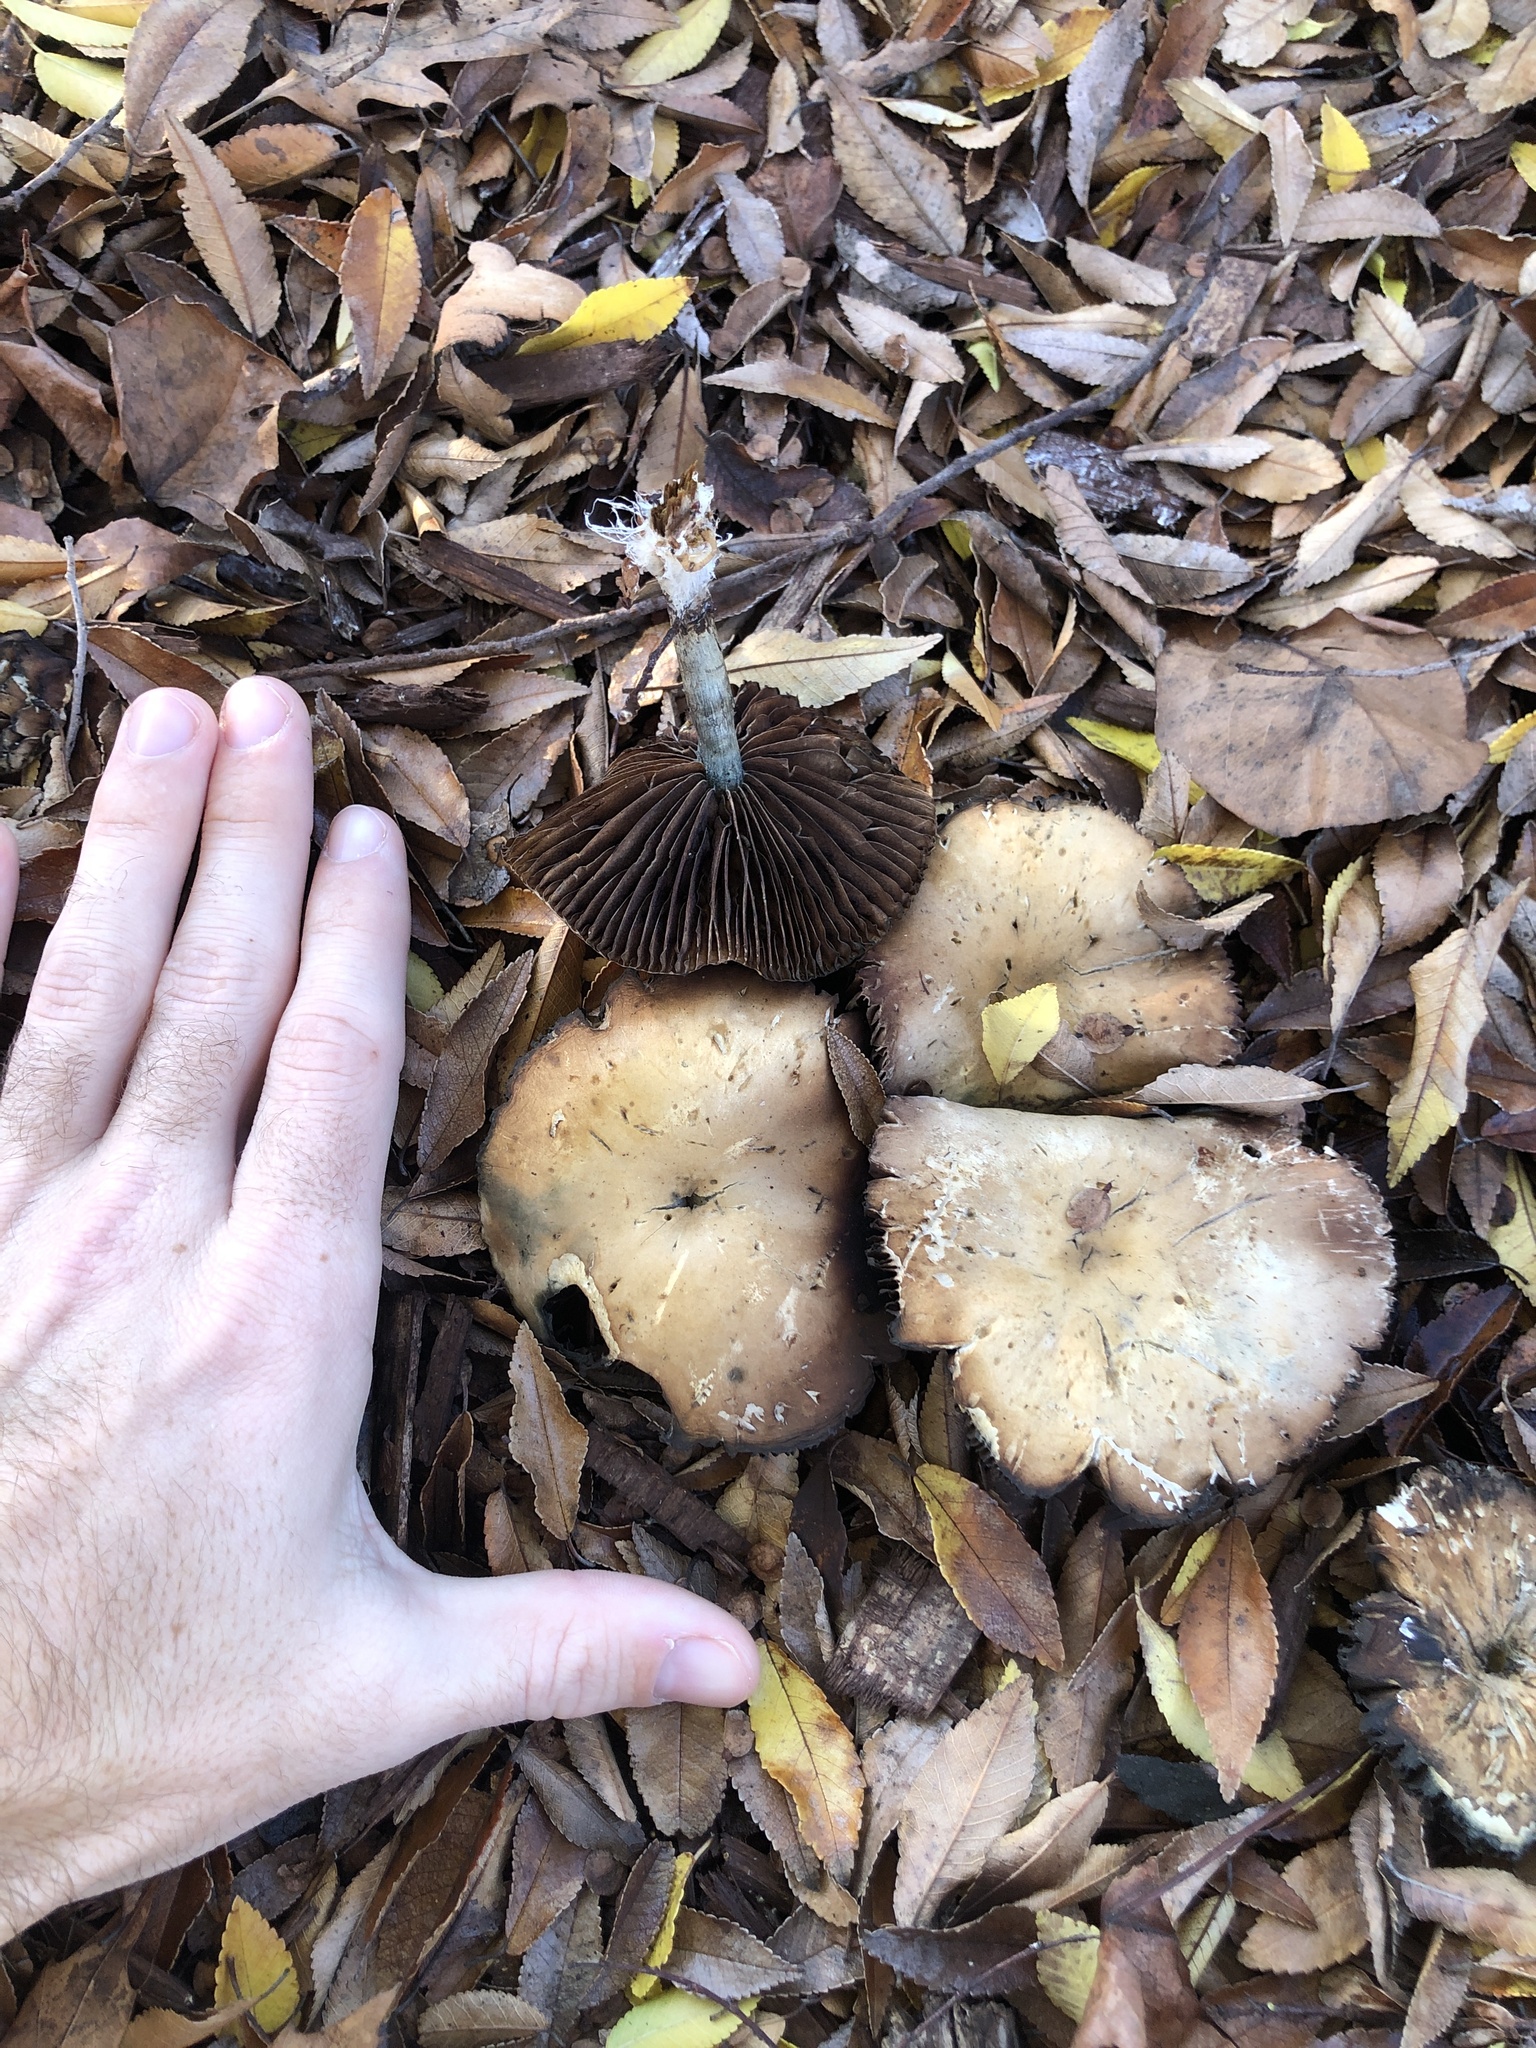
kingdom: Fungi
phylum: Basidiomycota
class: Agaricomycetes
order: Agaricales
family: Hymenogastraceae
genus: Psilocybe
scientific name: Psilocybe allenii
